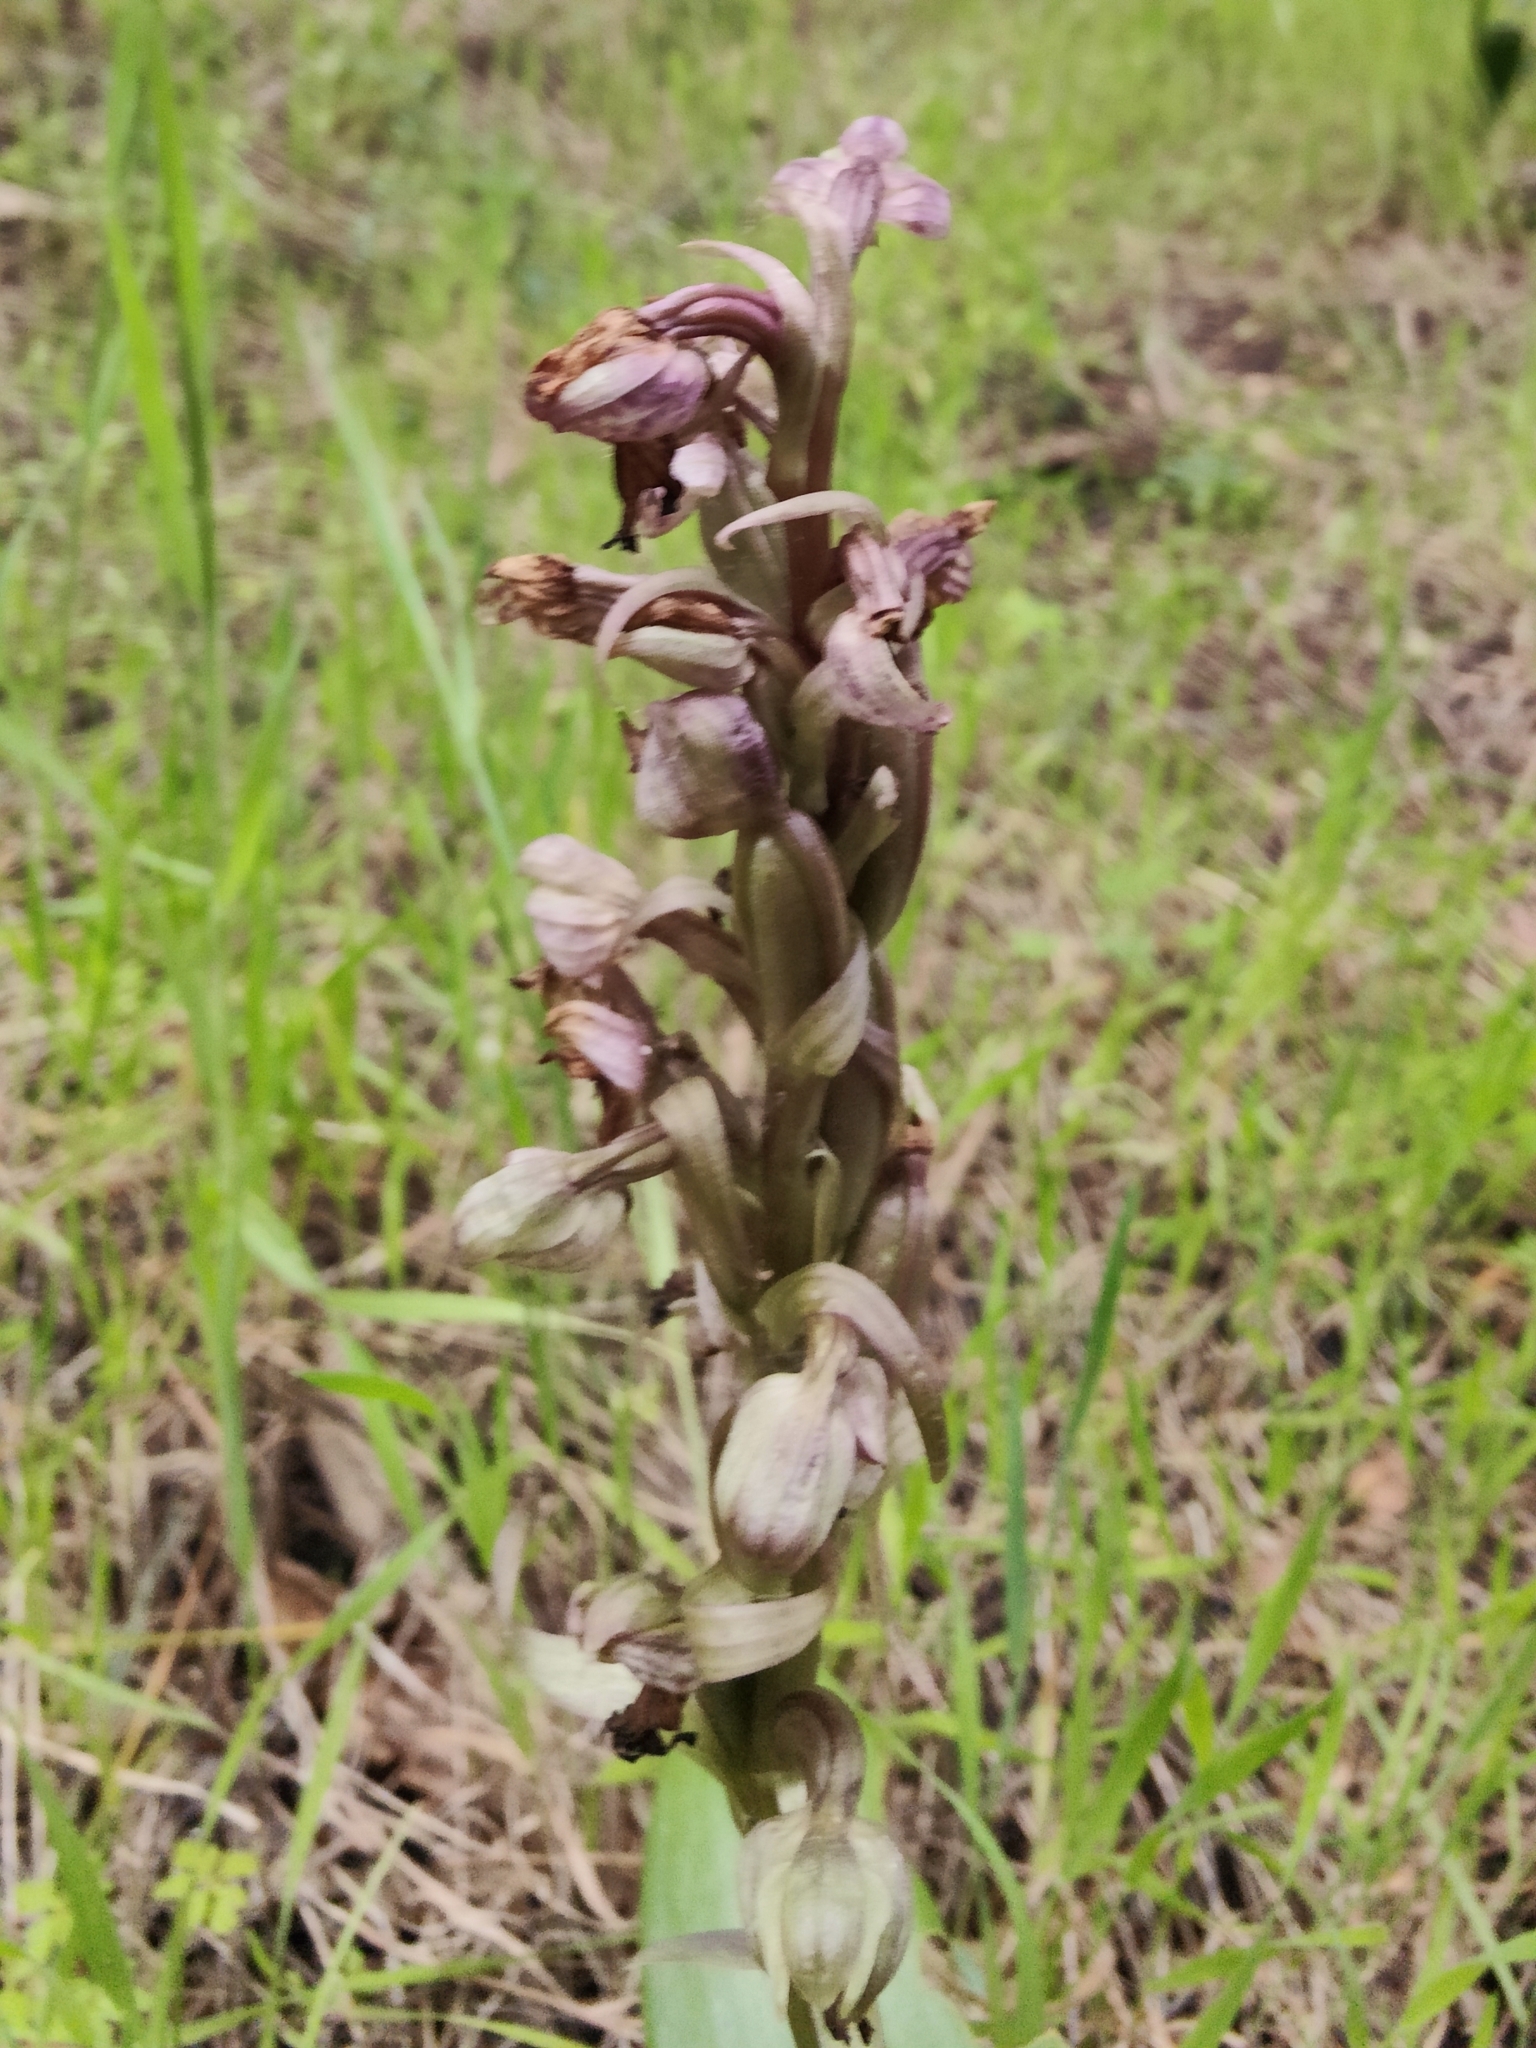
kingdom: Plantae
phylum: Tracheophyta
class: Liliopsida
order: Asparagales
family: Orchidaceae
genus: Himantoglossum
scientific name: Himantoglossum robertianum
